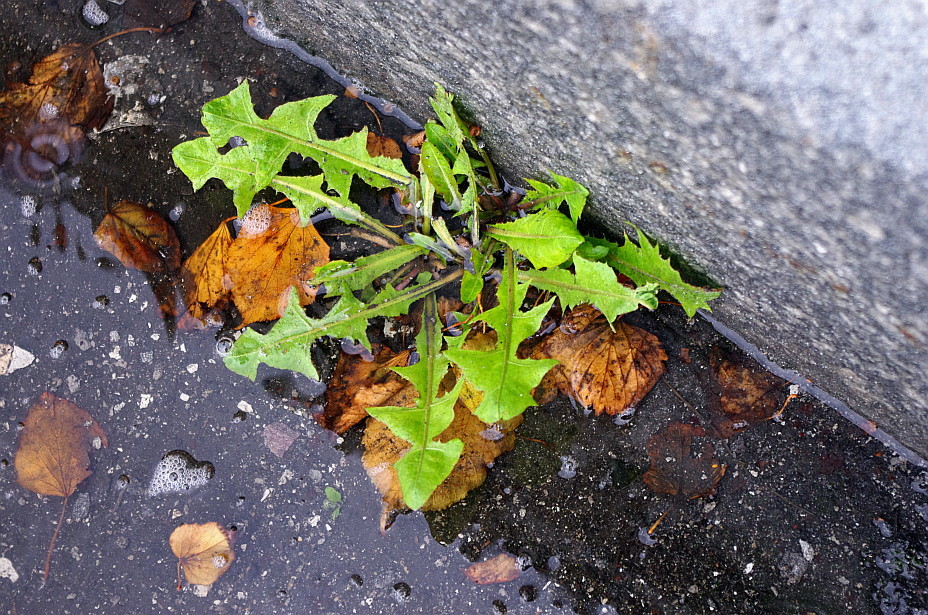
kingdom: Plantae
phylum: Tracheophyta
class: Magnoliopsida
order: Asterales
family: Asteraceae
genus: Taraxacum
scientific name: Taraxacum officinale
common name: Common dandelion
